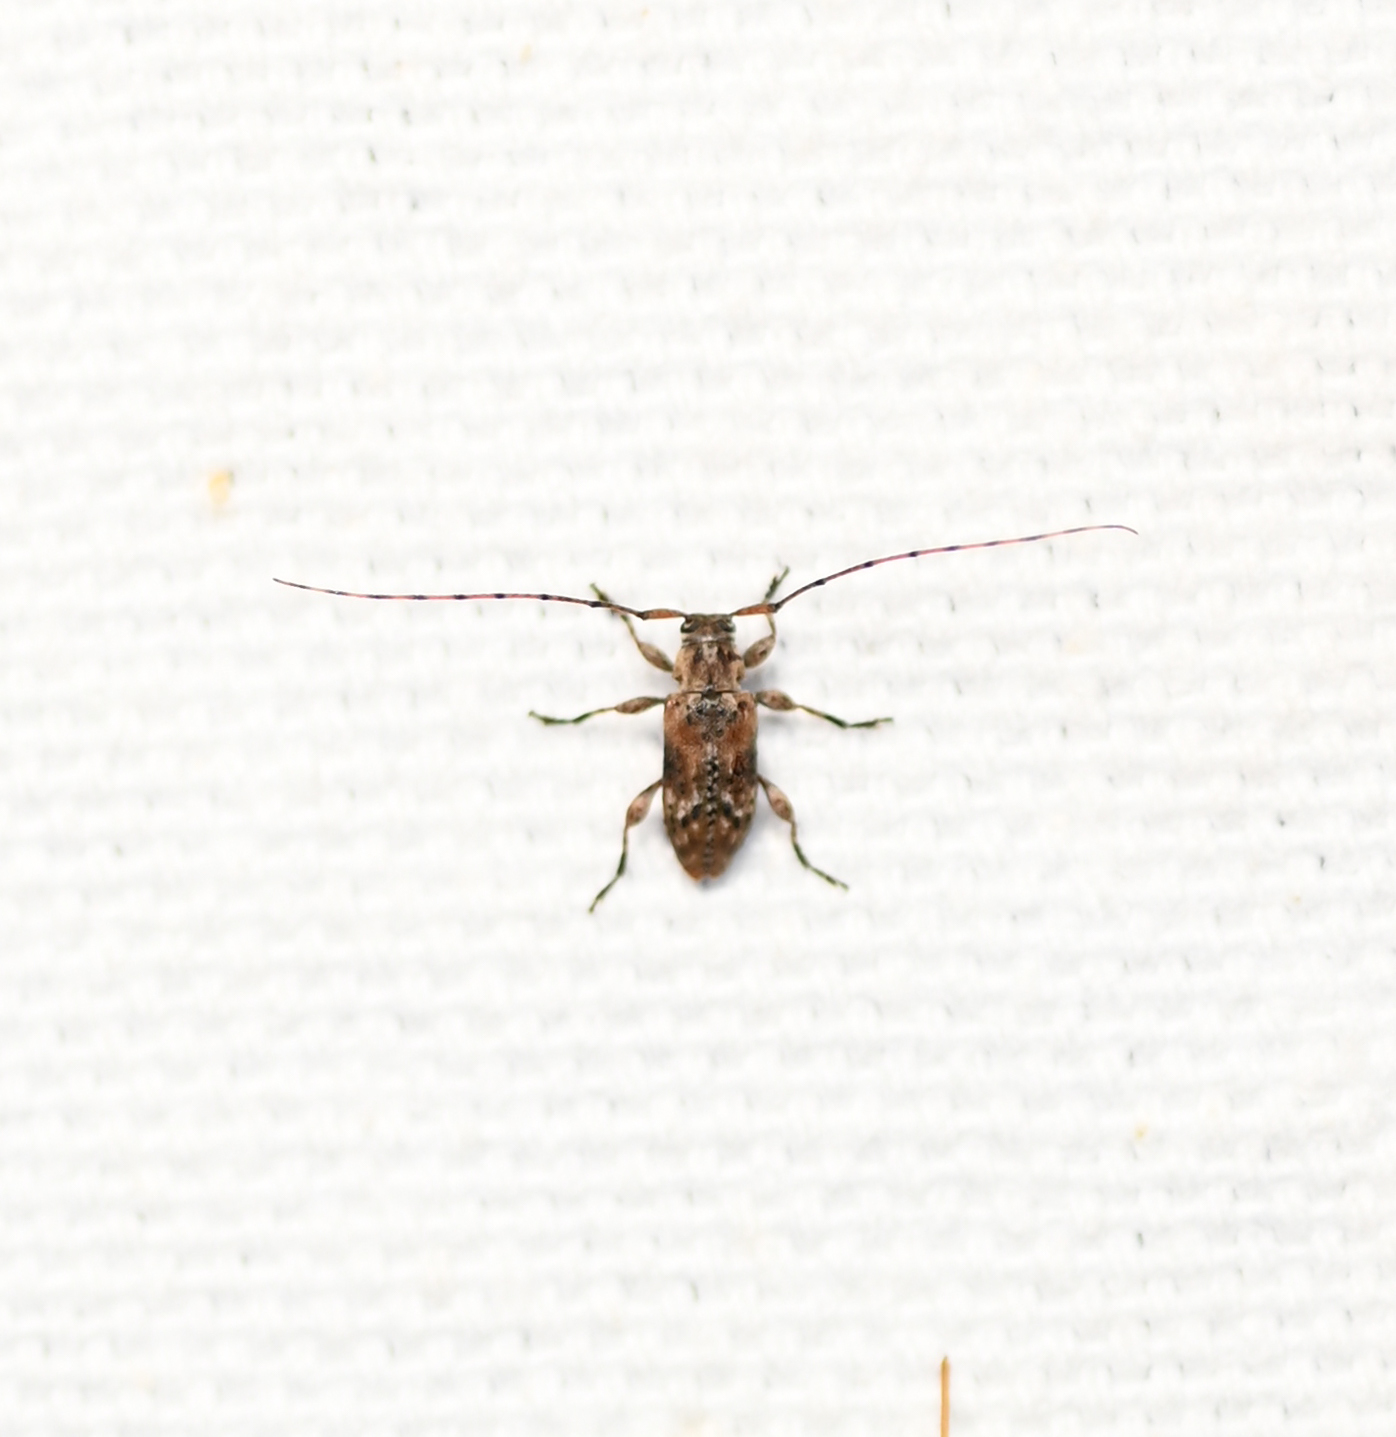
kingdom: Animalia
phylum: Arthropoda
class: Insecta
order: Coleoptera
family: Cerambycidae
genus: Sternidius
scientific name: Sternidius alpha
